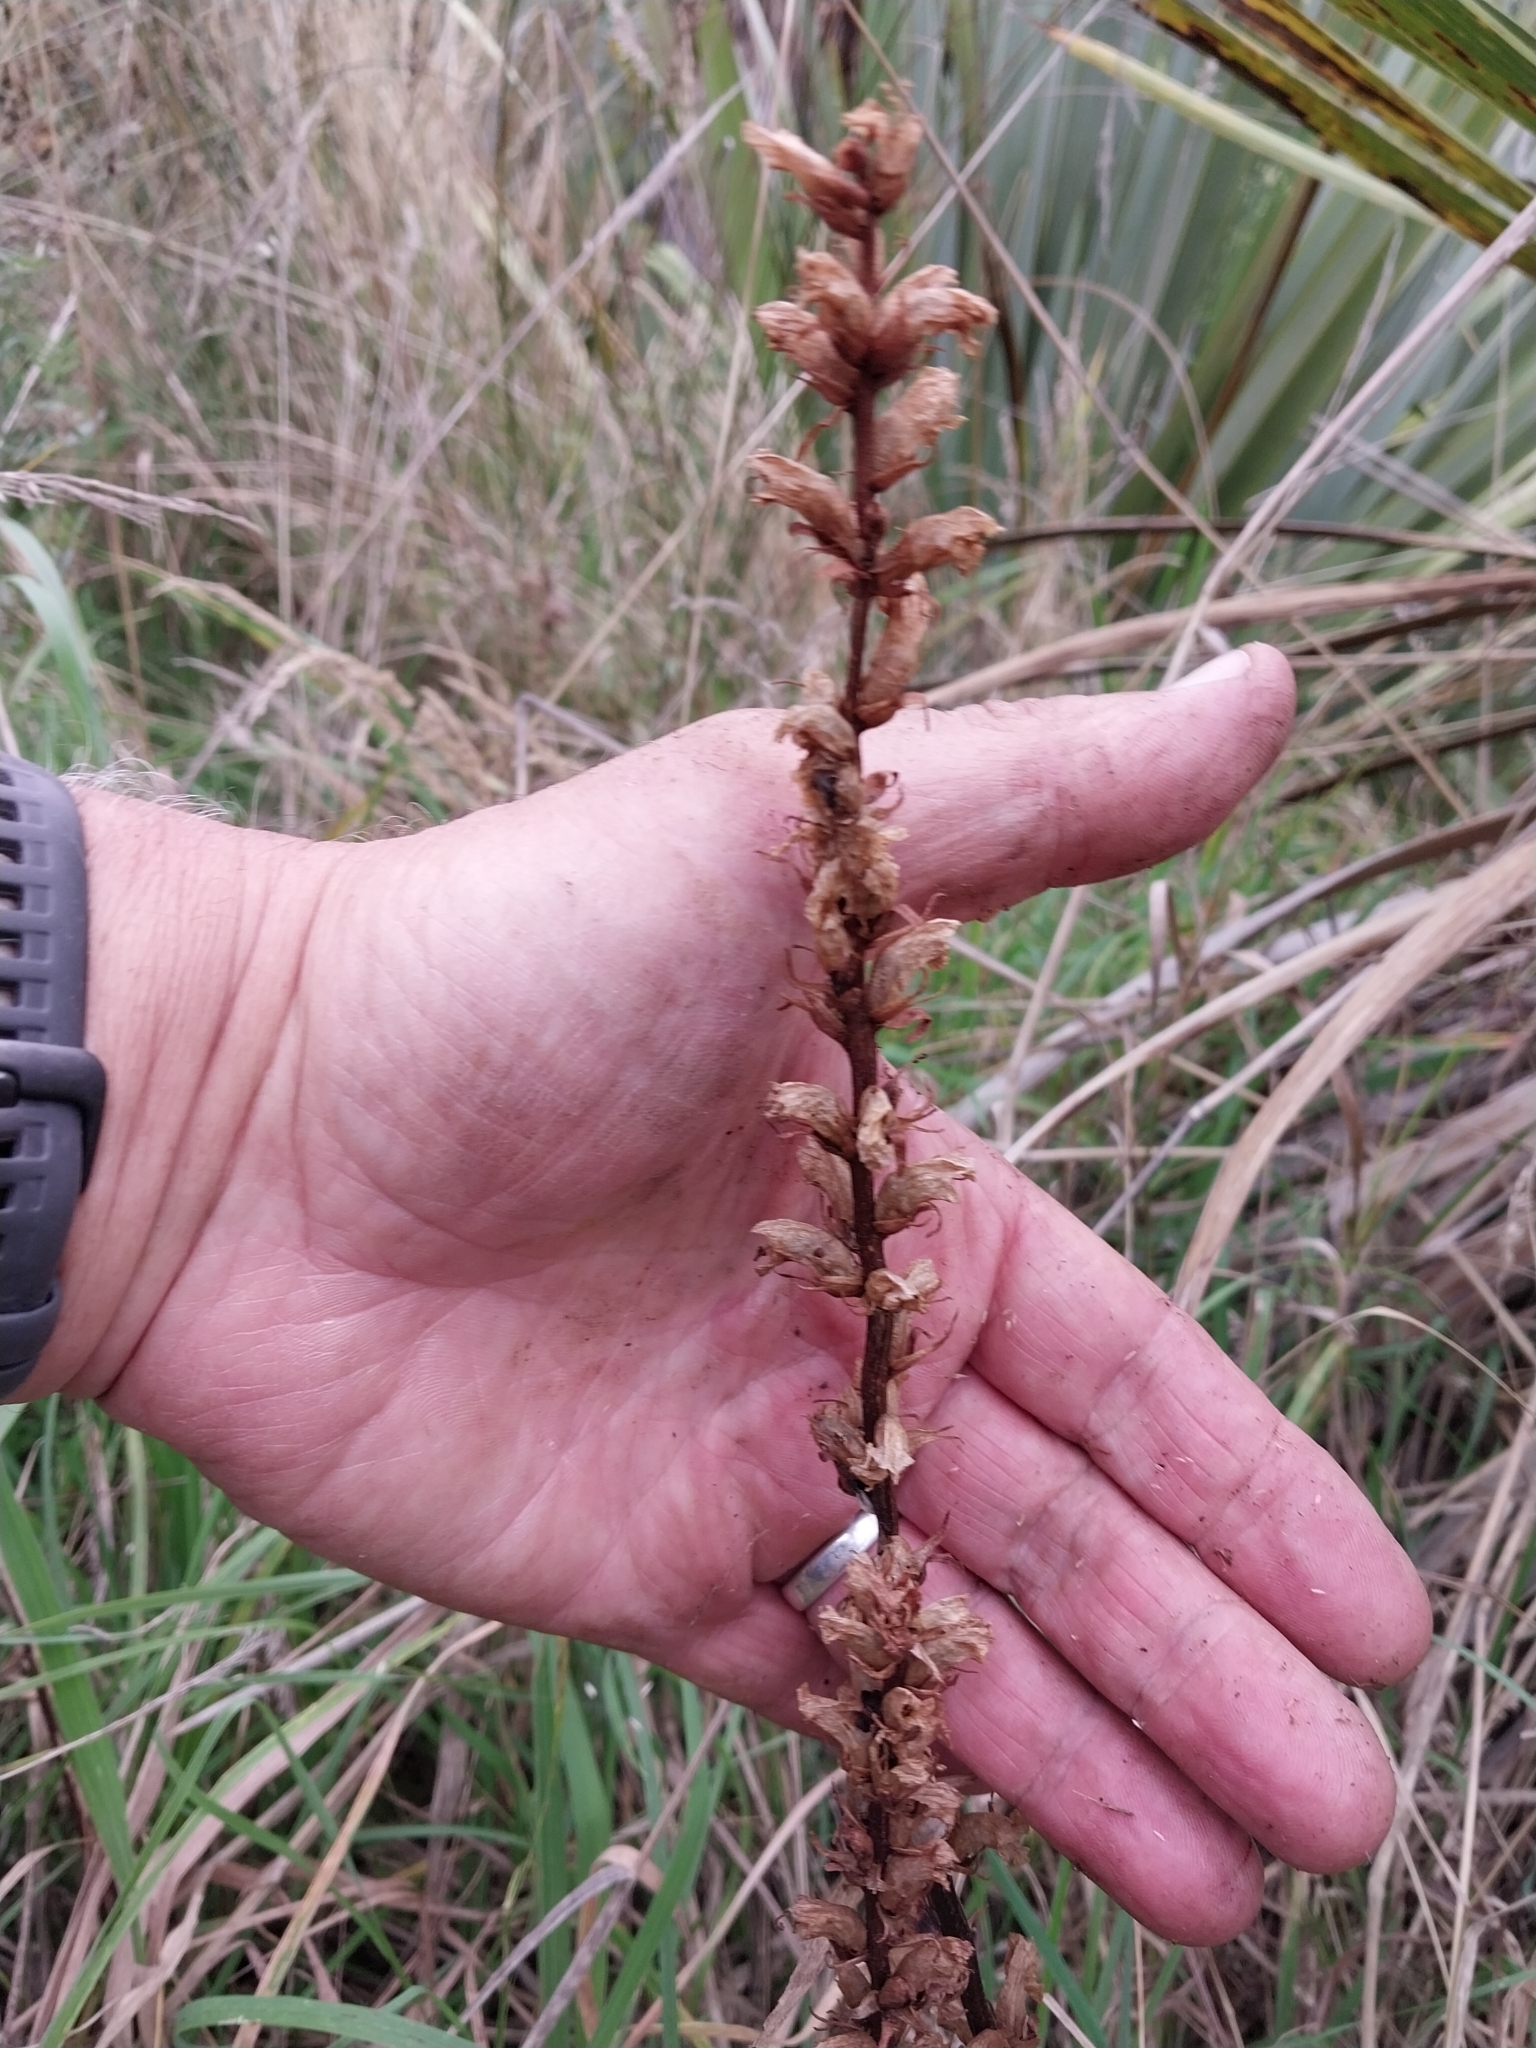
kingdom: Plantae
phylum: Tracheophyta
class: Magnoliopsida
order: Lamiales
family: Orobanchaceae
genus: Orobanche
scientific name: Orobanche minor
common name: Common broomrape
